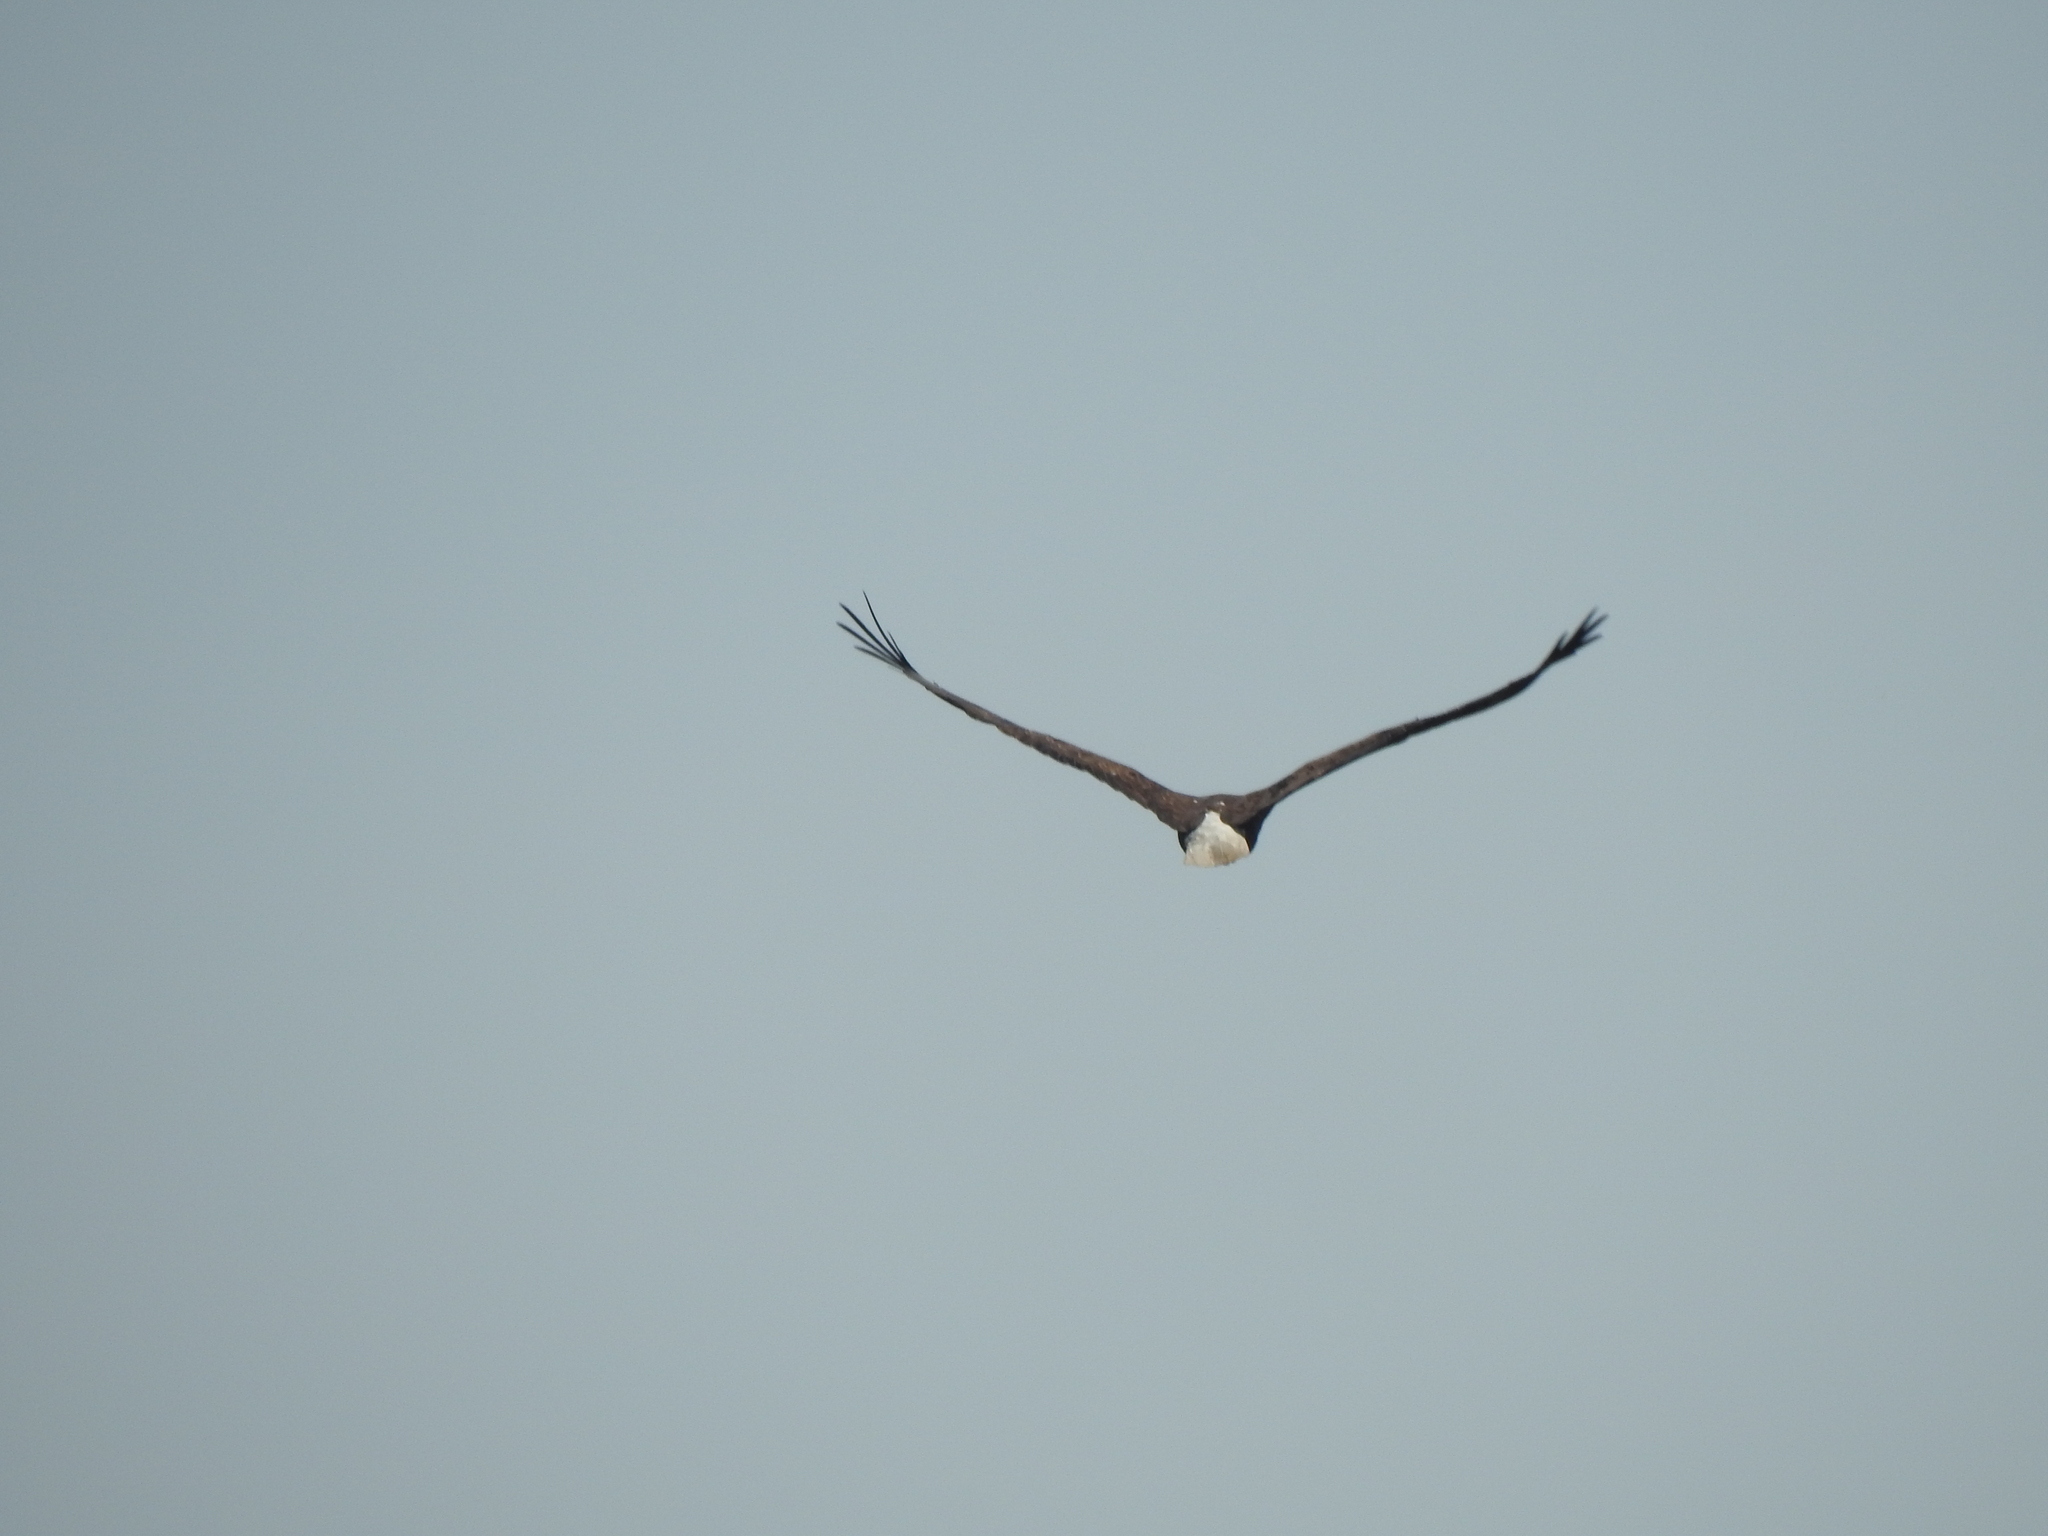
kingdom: Animalia
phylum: Chordata
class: Aves
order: Accipitriformes
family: Accipitridae
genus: Haliaeetus
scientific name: Haliaeetus leucocephalus
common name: Bald eagle
